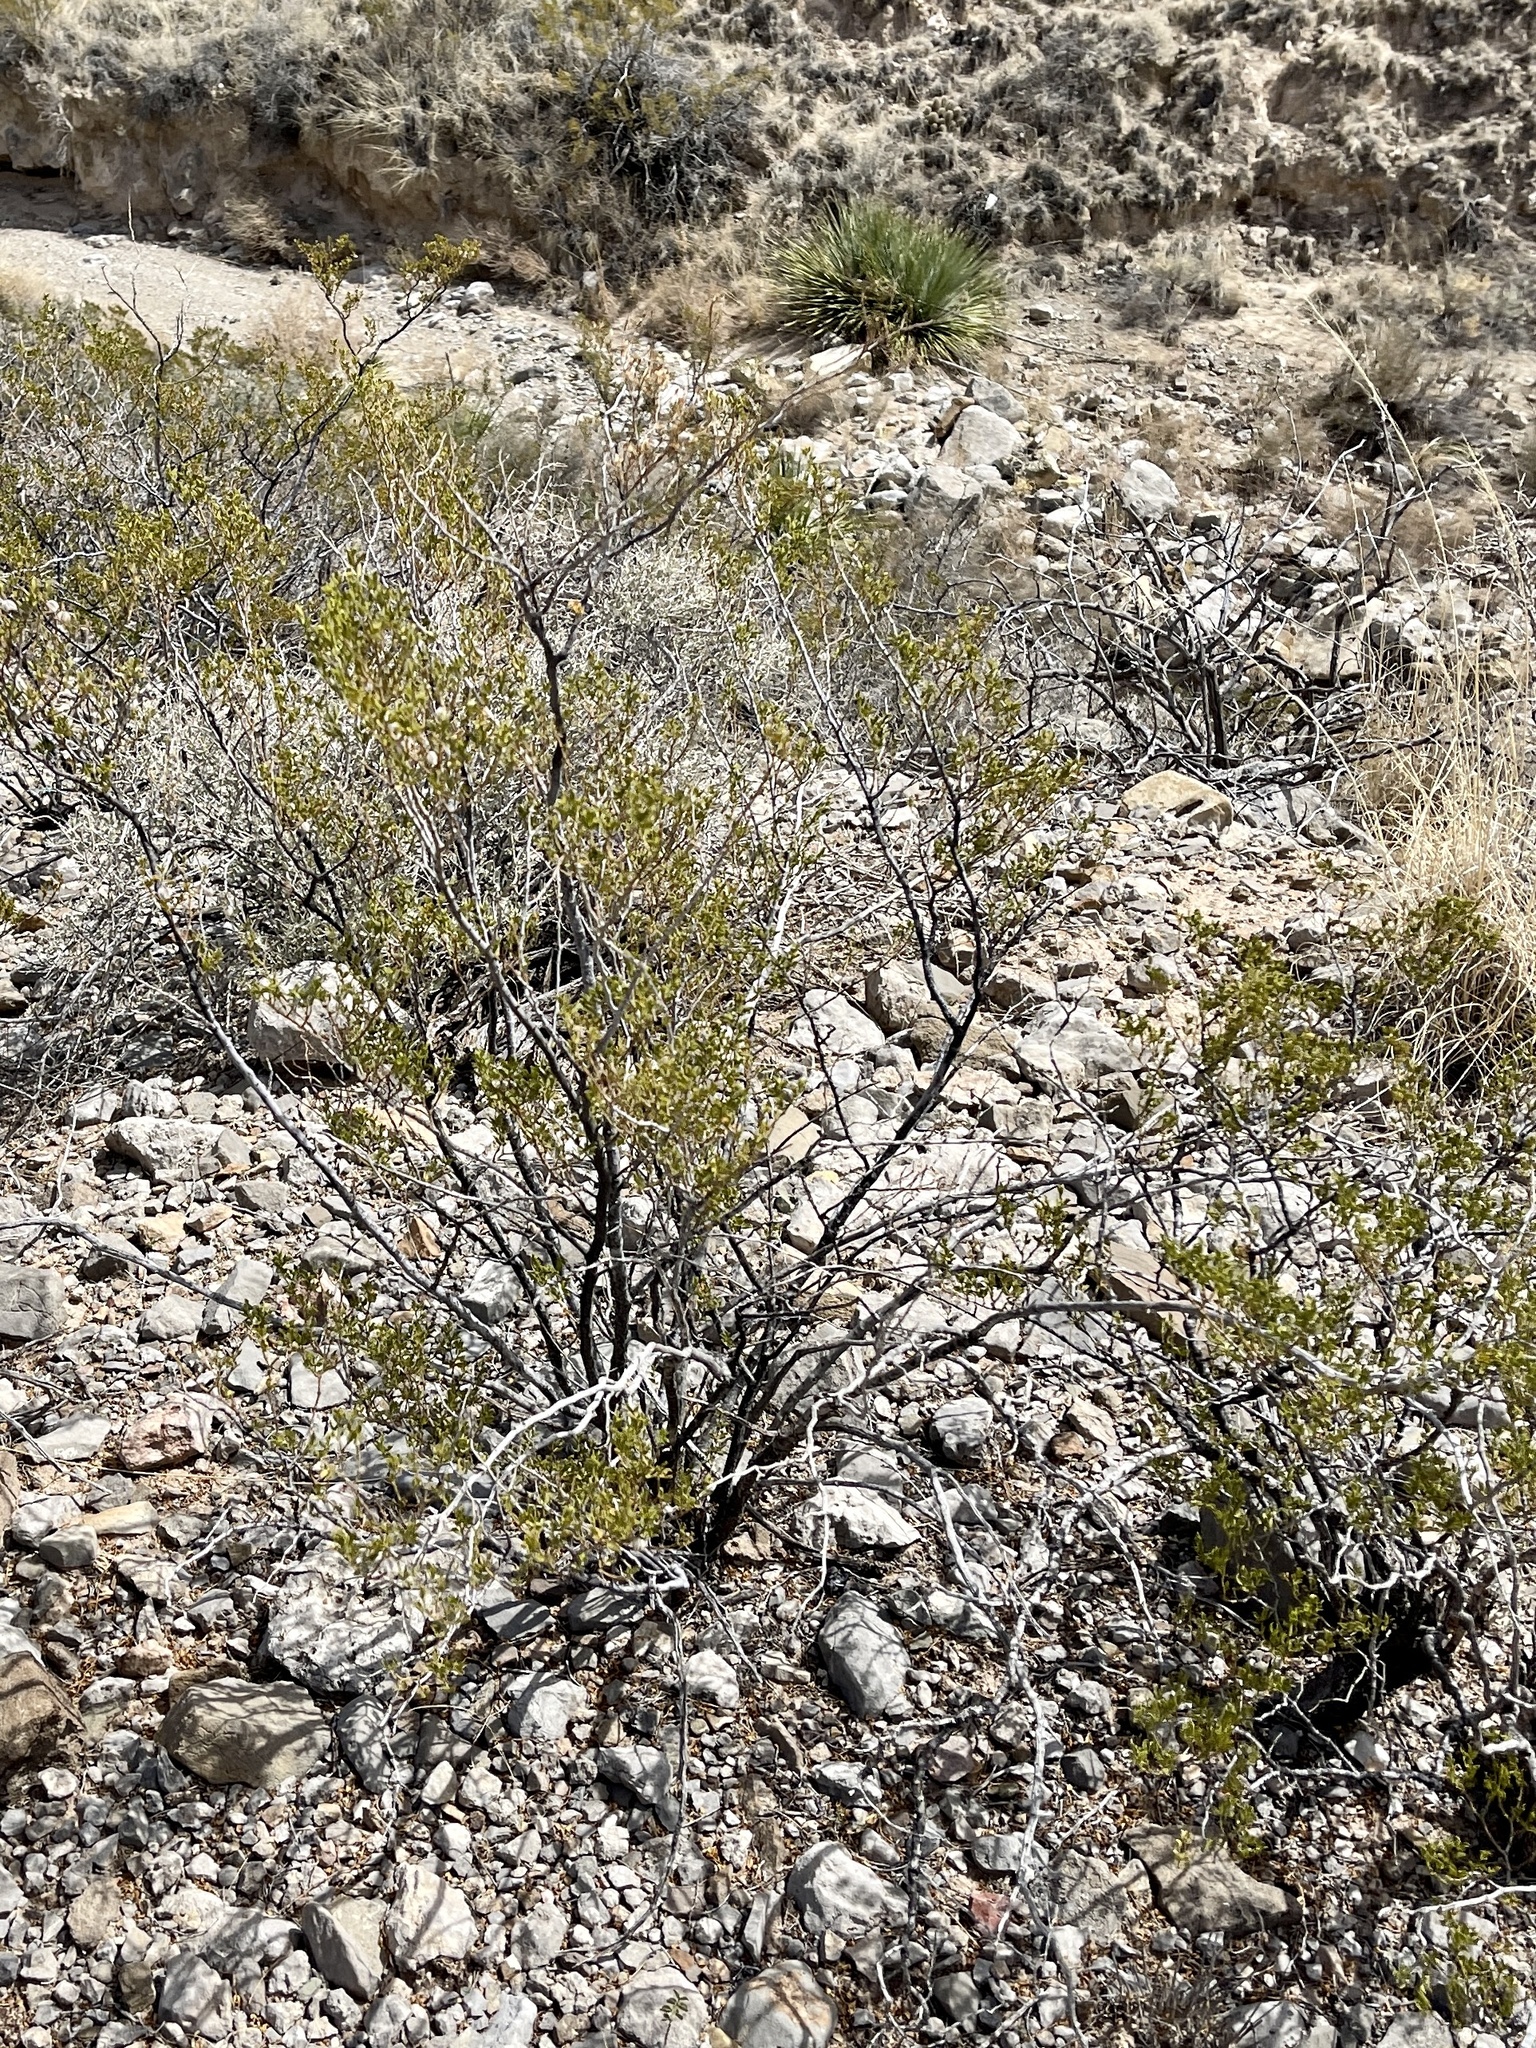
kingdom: Plantae
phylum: Tracheophyta
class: Magnoliopsida
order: Zygophyllales
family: Zygophyllaceae
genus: Larrea
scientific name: Larrea tridentata
